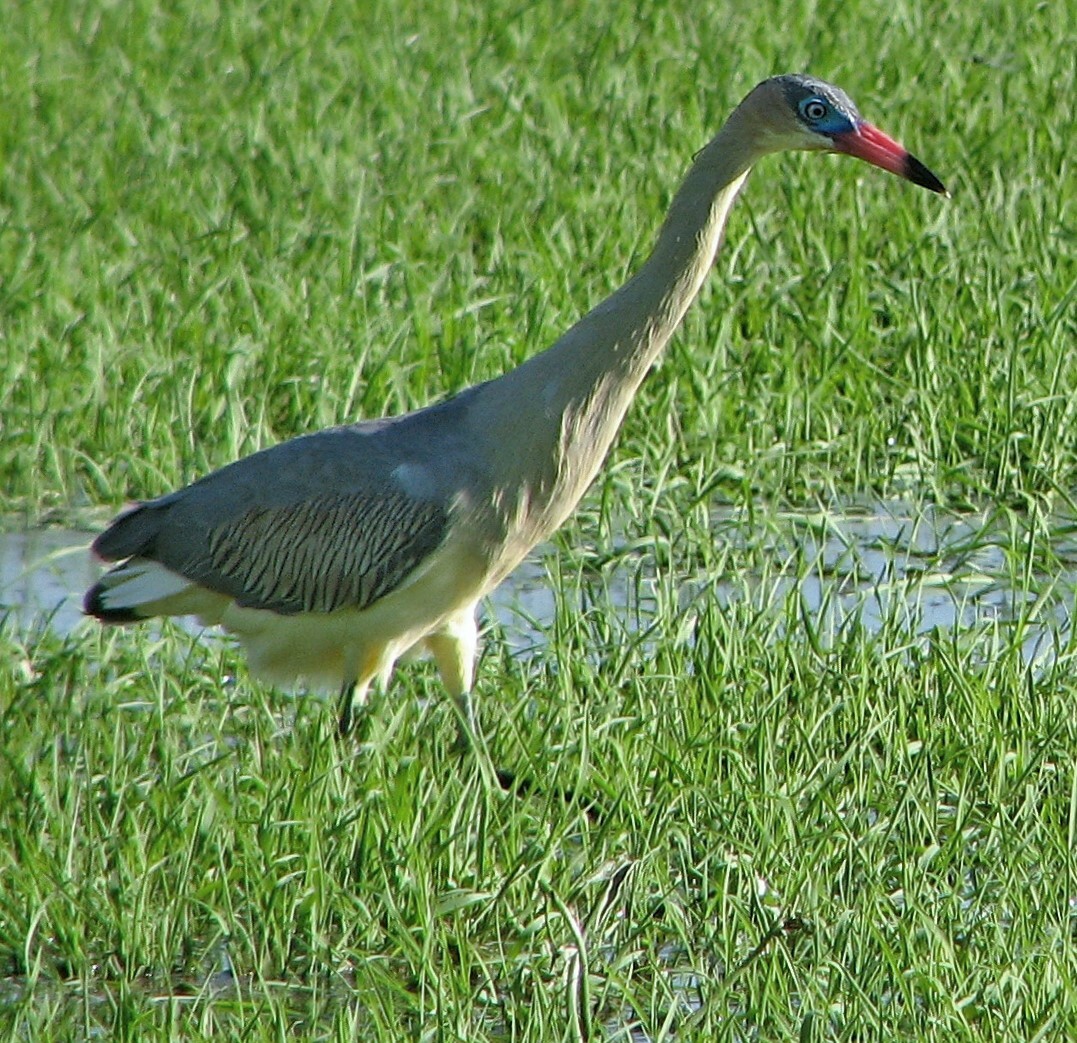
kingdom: Animalia
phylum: Chordata
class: Aves
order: Pelecaniformes
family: Ardeidae
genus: Syrigma
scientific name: Syrigma sibilatrix
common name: Whistling heron
